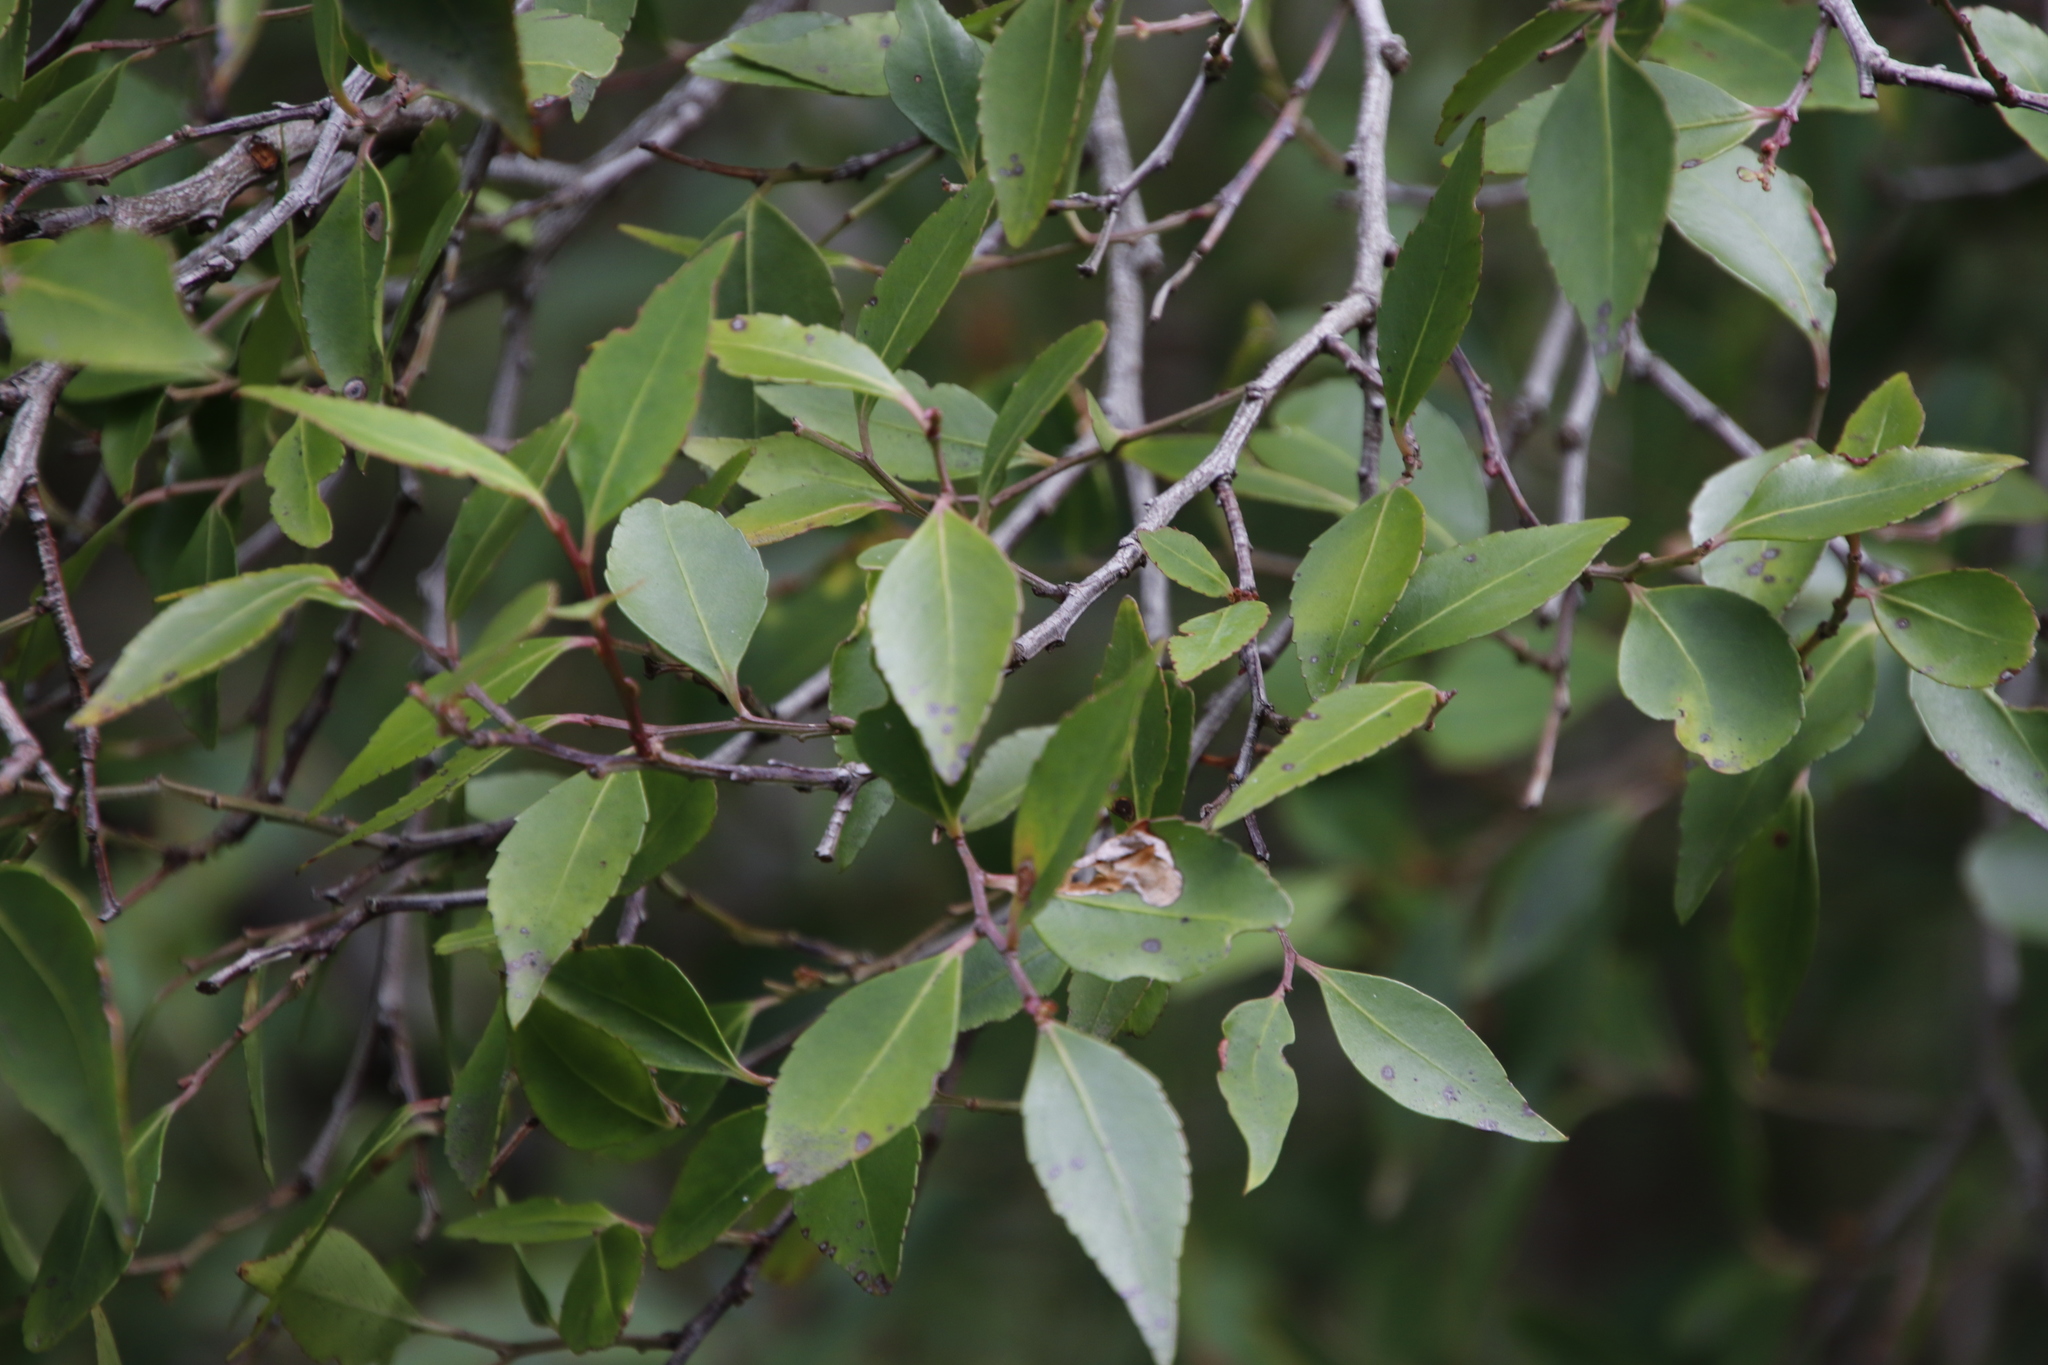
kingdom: Plantae
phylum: Tracheophyta
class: Magnoliopsida
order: Celastrales
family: Celastraceae
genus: Gymnosporia
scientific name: Gymnosporia acuminata
